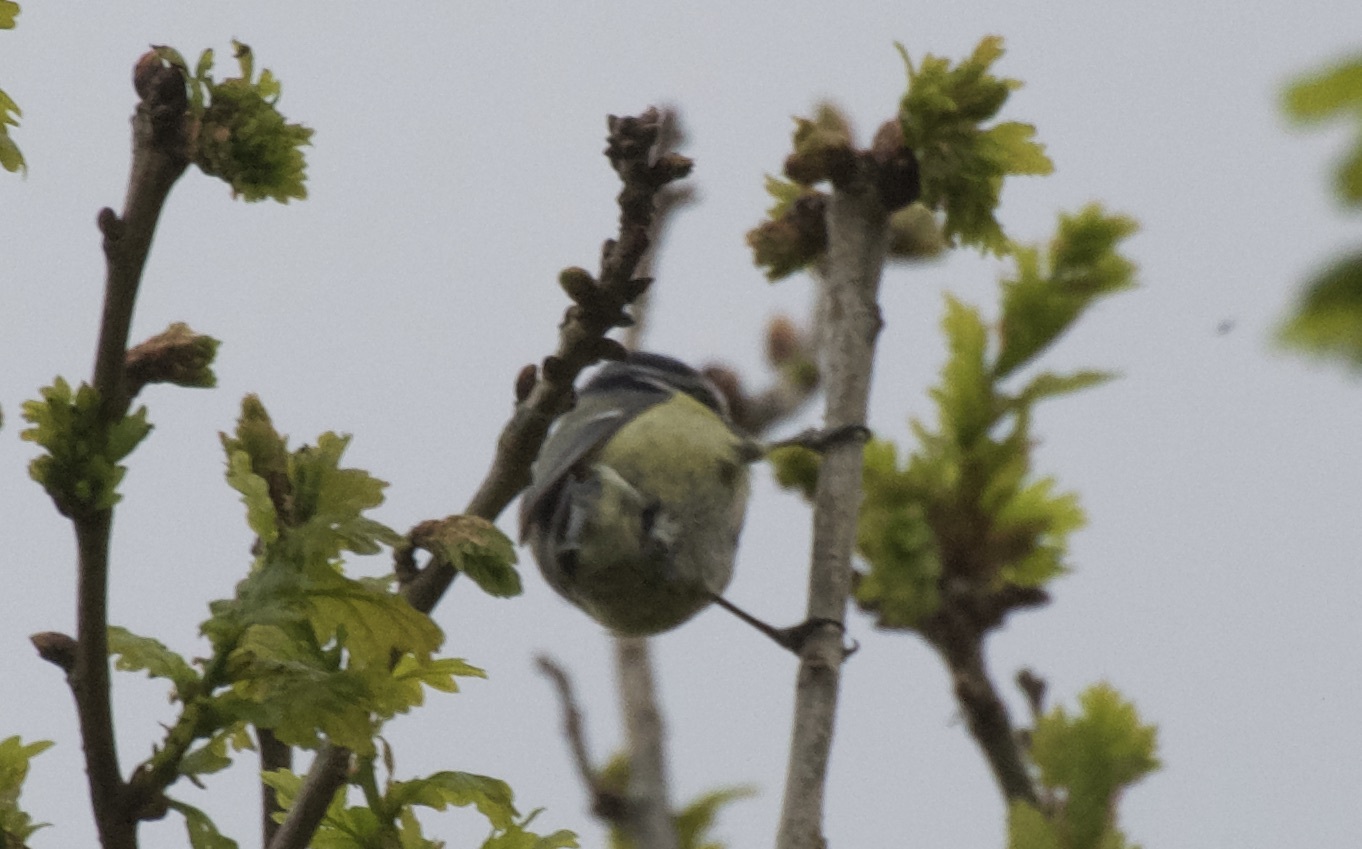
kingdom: Animalia
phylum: Chordata
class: Aves
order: Passeriformes
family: Paridae
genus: Cyanistes
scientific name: Cyanistes caeruleus
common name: Eurasian blue tit
